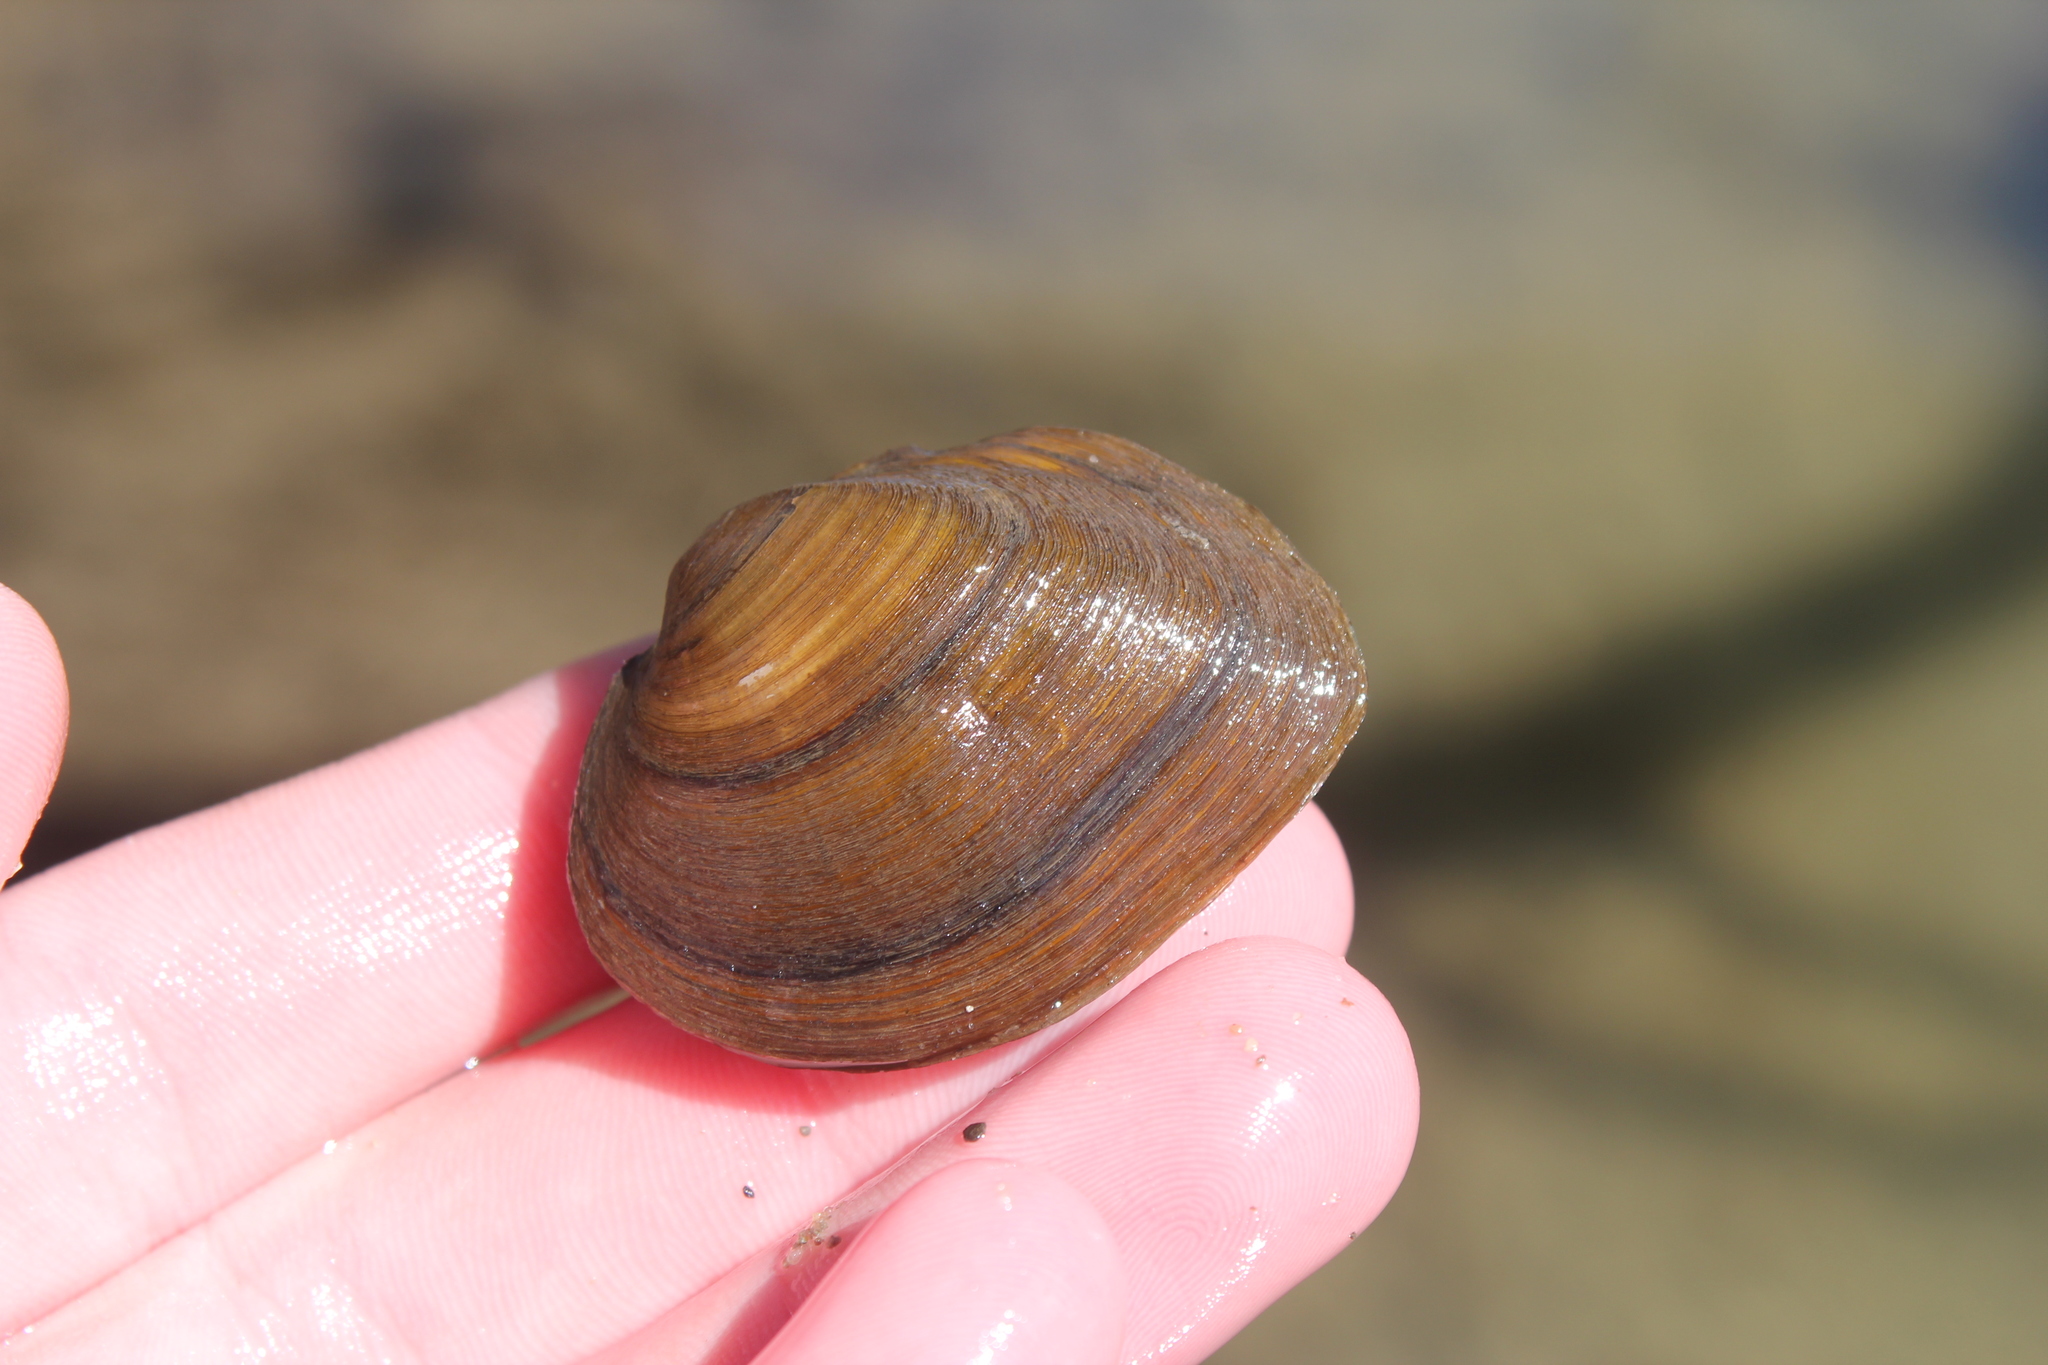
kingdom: Animalia
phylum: Mollusca
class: Bivalvia
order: Unionida
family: Unionidae
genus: Fusconaia
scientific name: Fusconaia flava
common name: Wabash pigtoe
